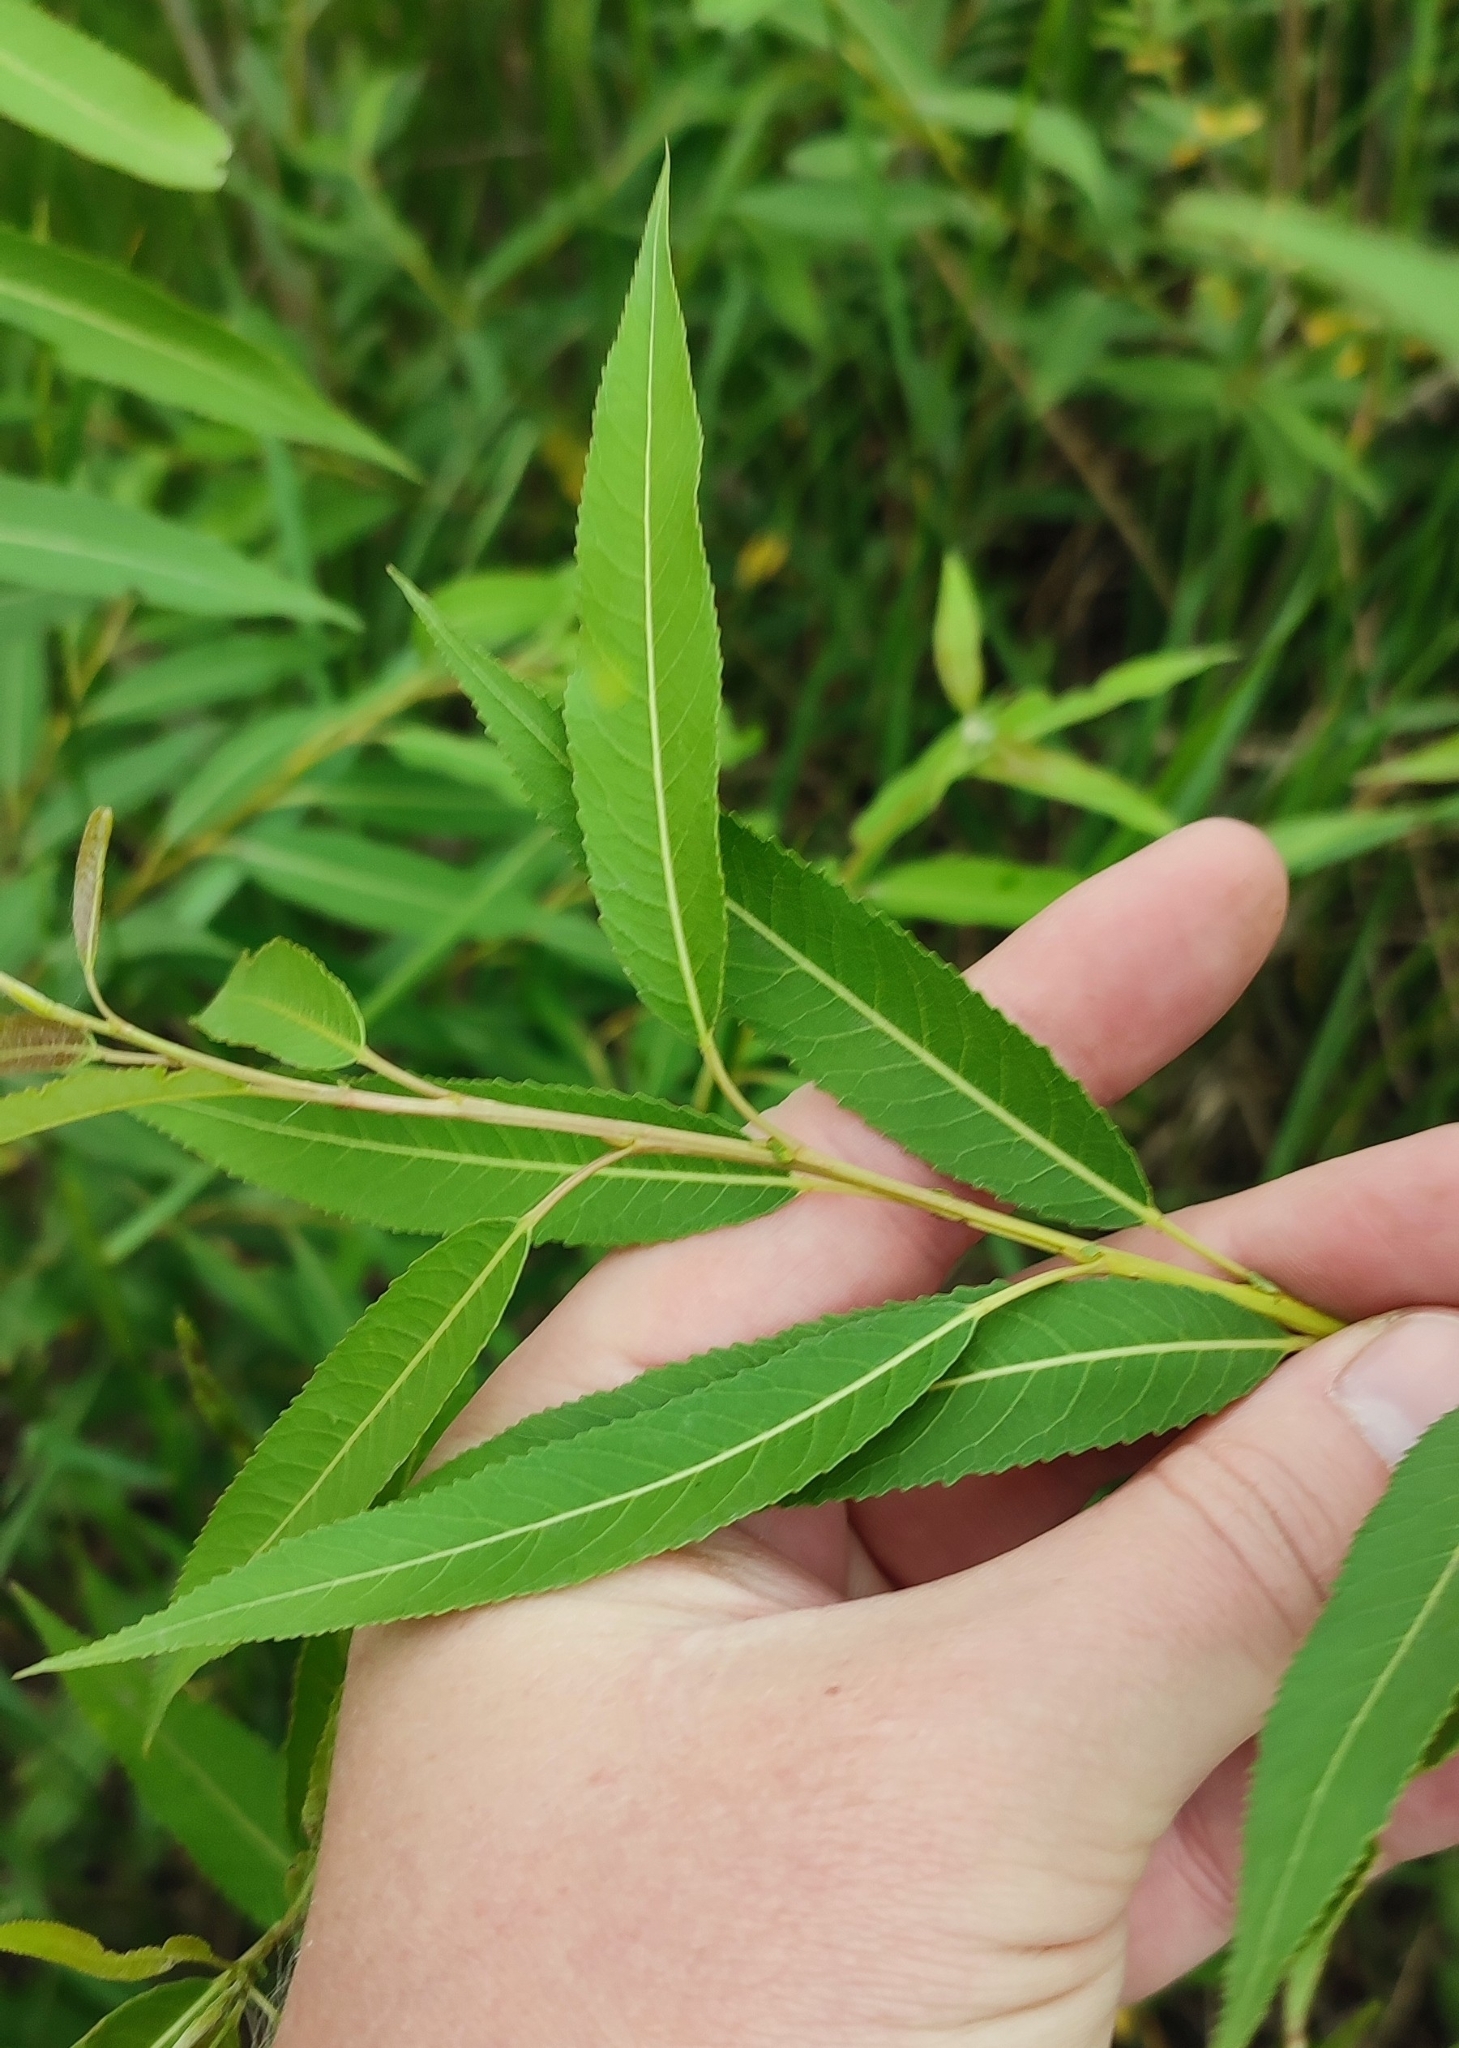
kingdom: Plantae
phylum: Tracheophyta
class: Magnoliopsida
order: Malpighiales
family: Salicaceae
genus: Salix
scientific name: Salix triandra
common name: Almond willow
